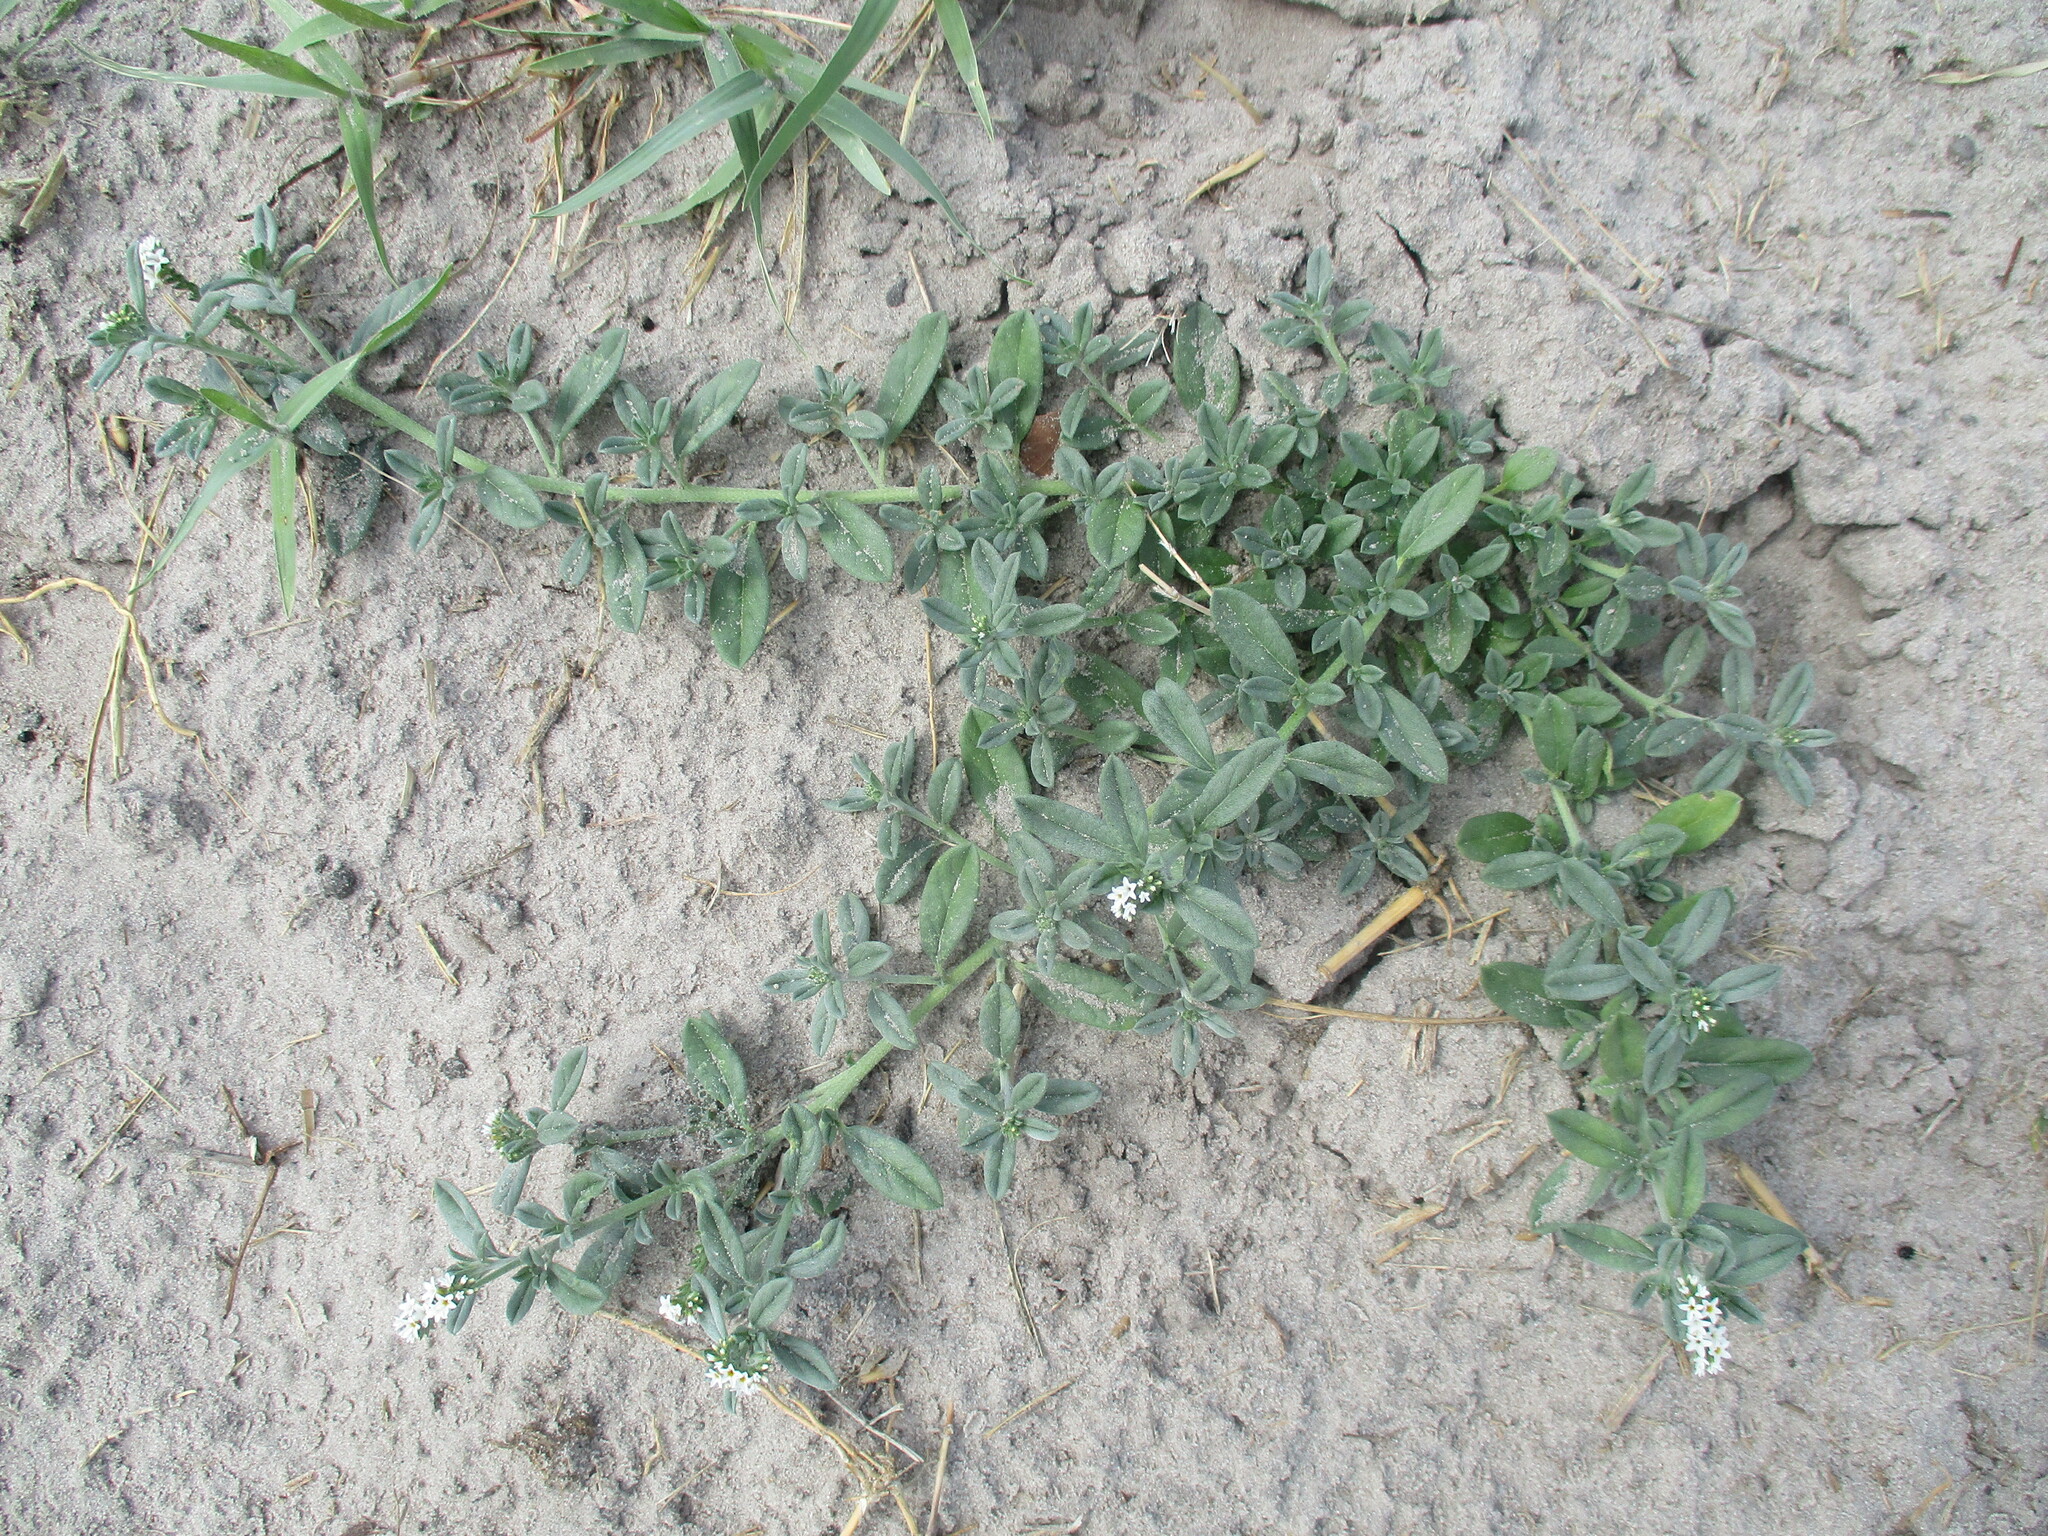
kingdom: Plantae
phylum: Tracheophyta
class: Magnoliopsida
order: Boraginales
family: Heliotropiaceae
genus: Euploca
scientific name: Euploca ovalifolia
